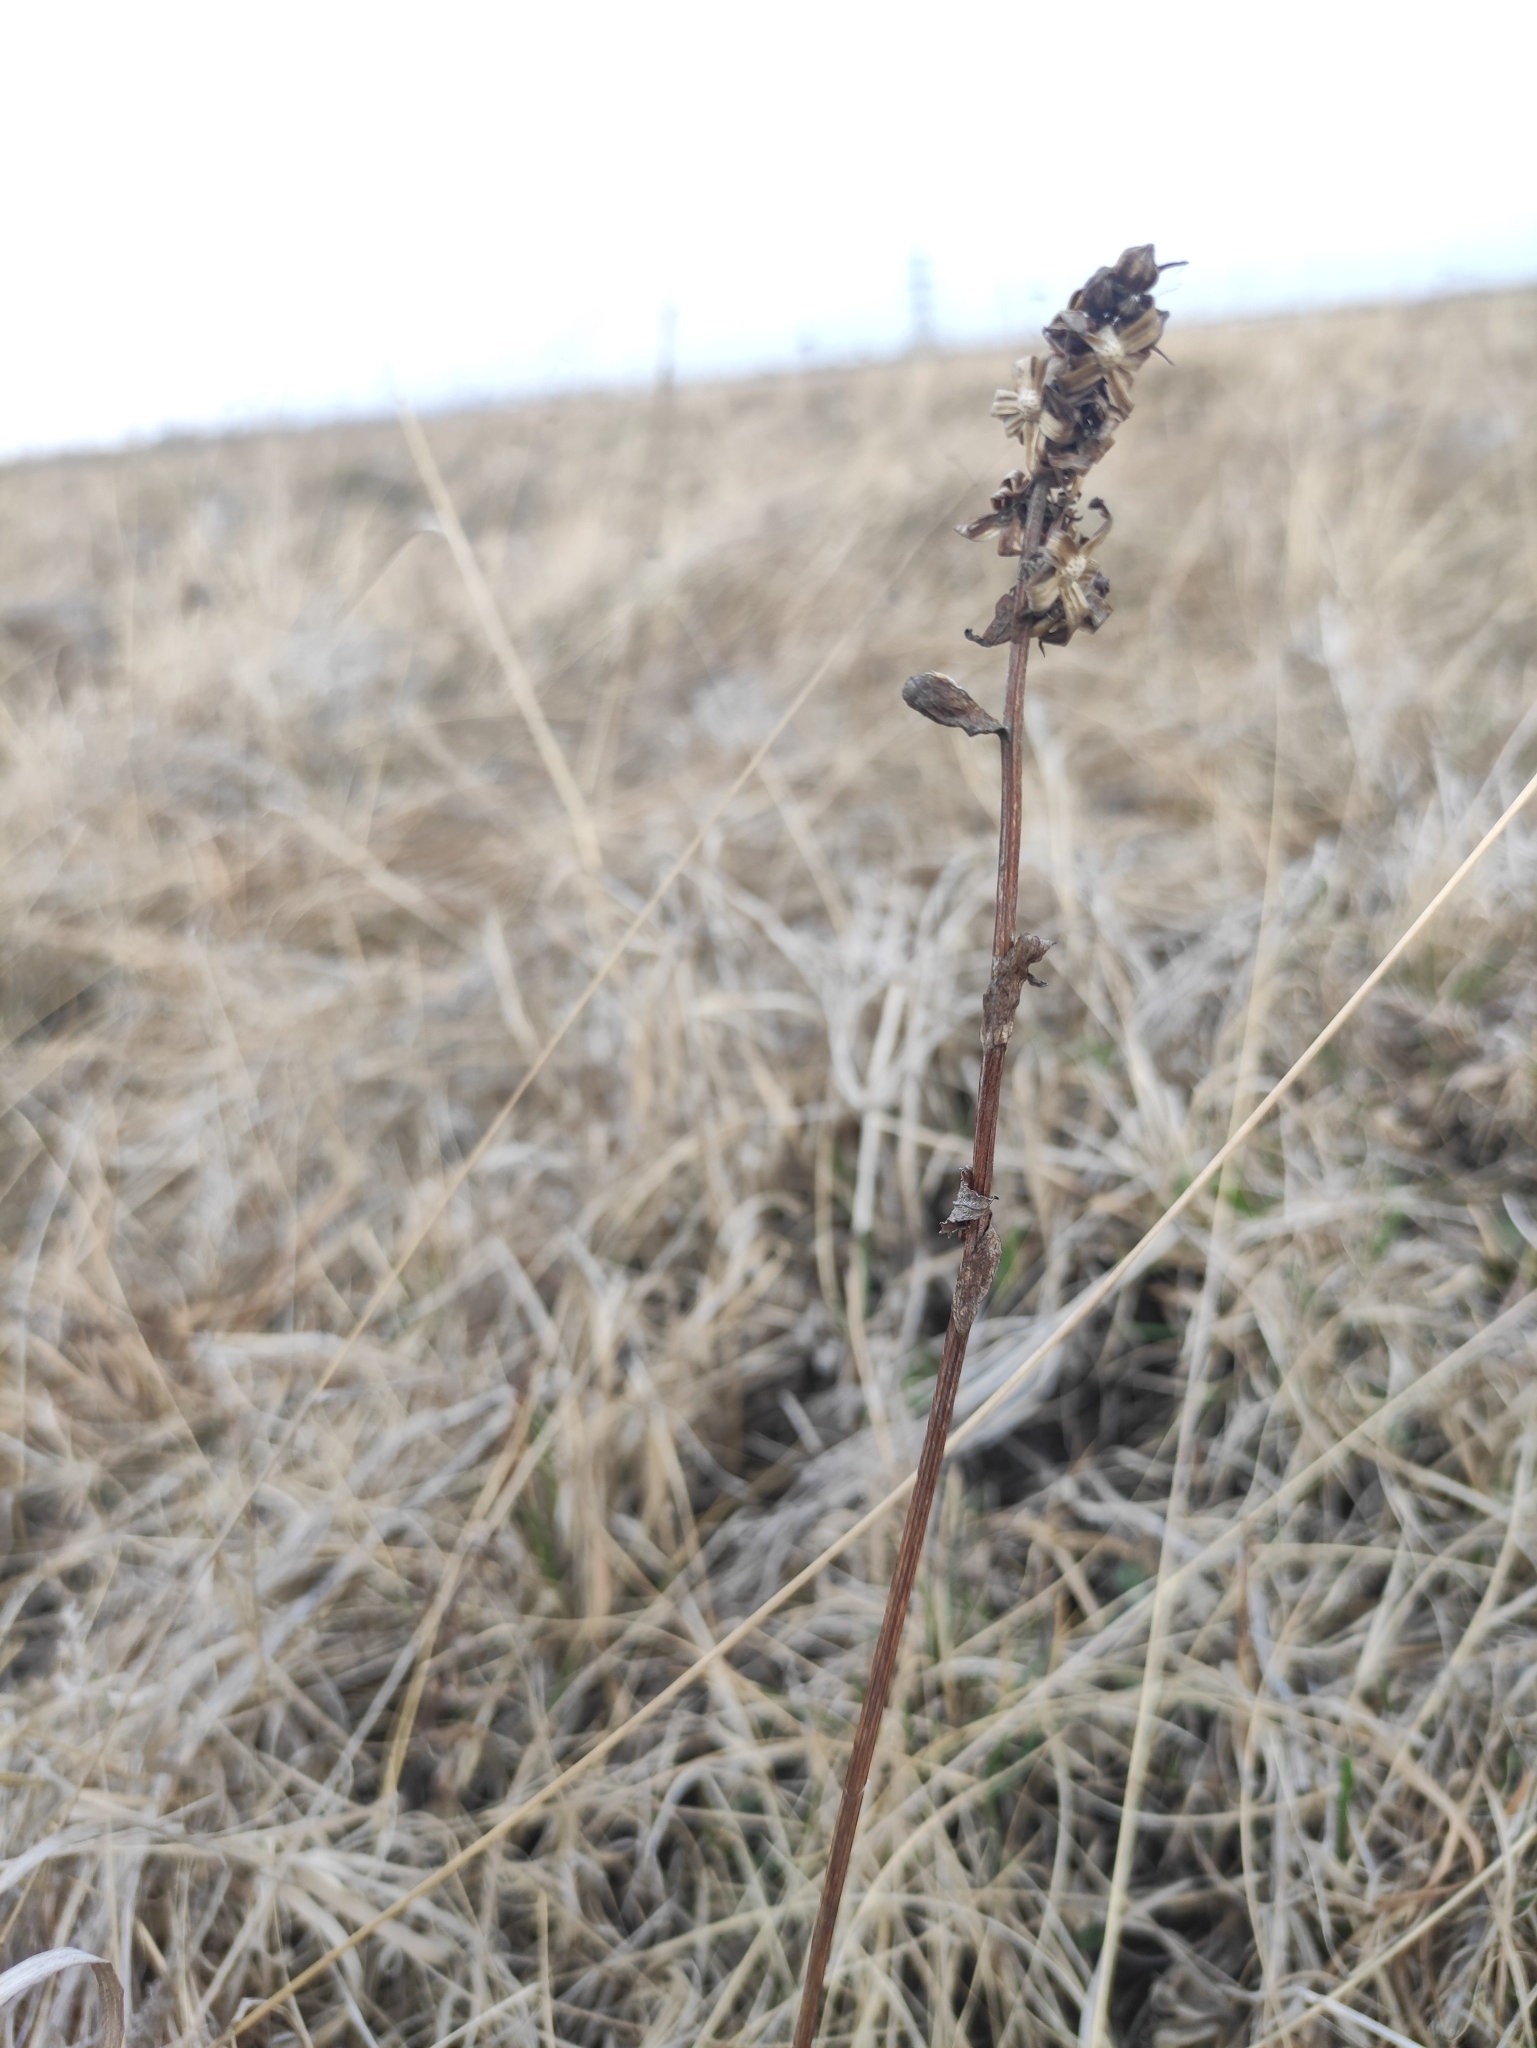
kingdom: Plantae
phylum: Tracheophyta
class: Magnoliopsida
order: Asterales
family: Asteraceae
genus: Ligularia
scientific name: Ligularia sibirica
